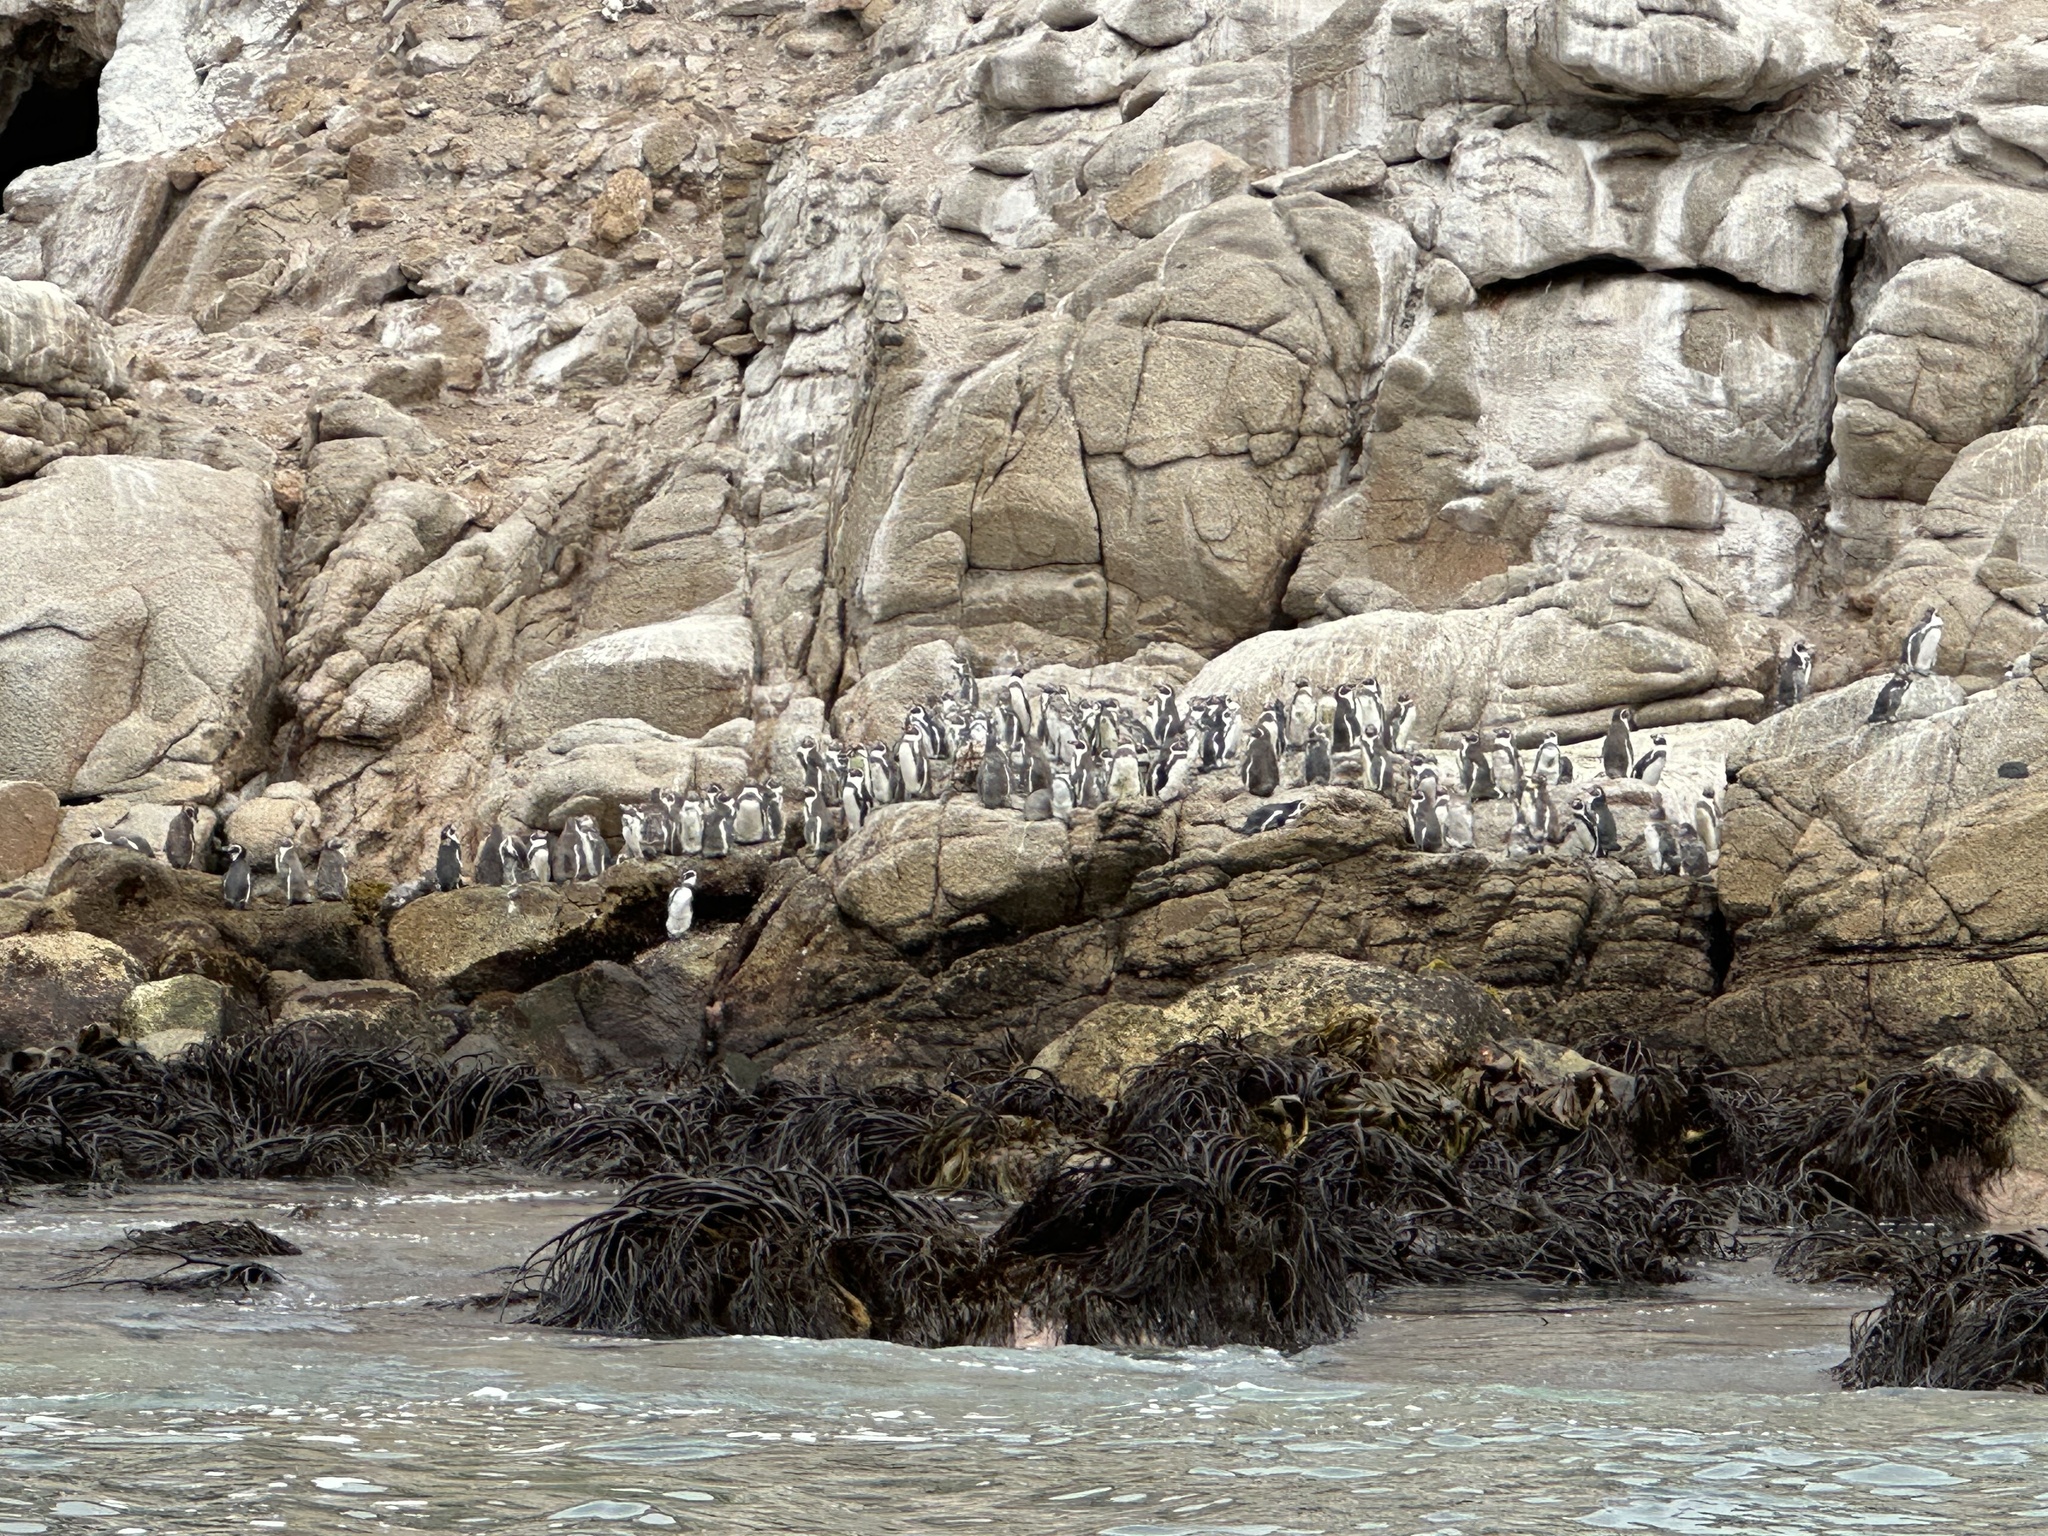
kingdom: Animalia
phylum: Chordata
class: Aves
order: Sphenisciformes
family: Spheniscidae
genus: Spheniscus
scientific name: Spheniscus humboldti
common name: Humboldt penguin
